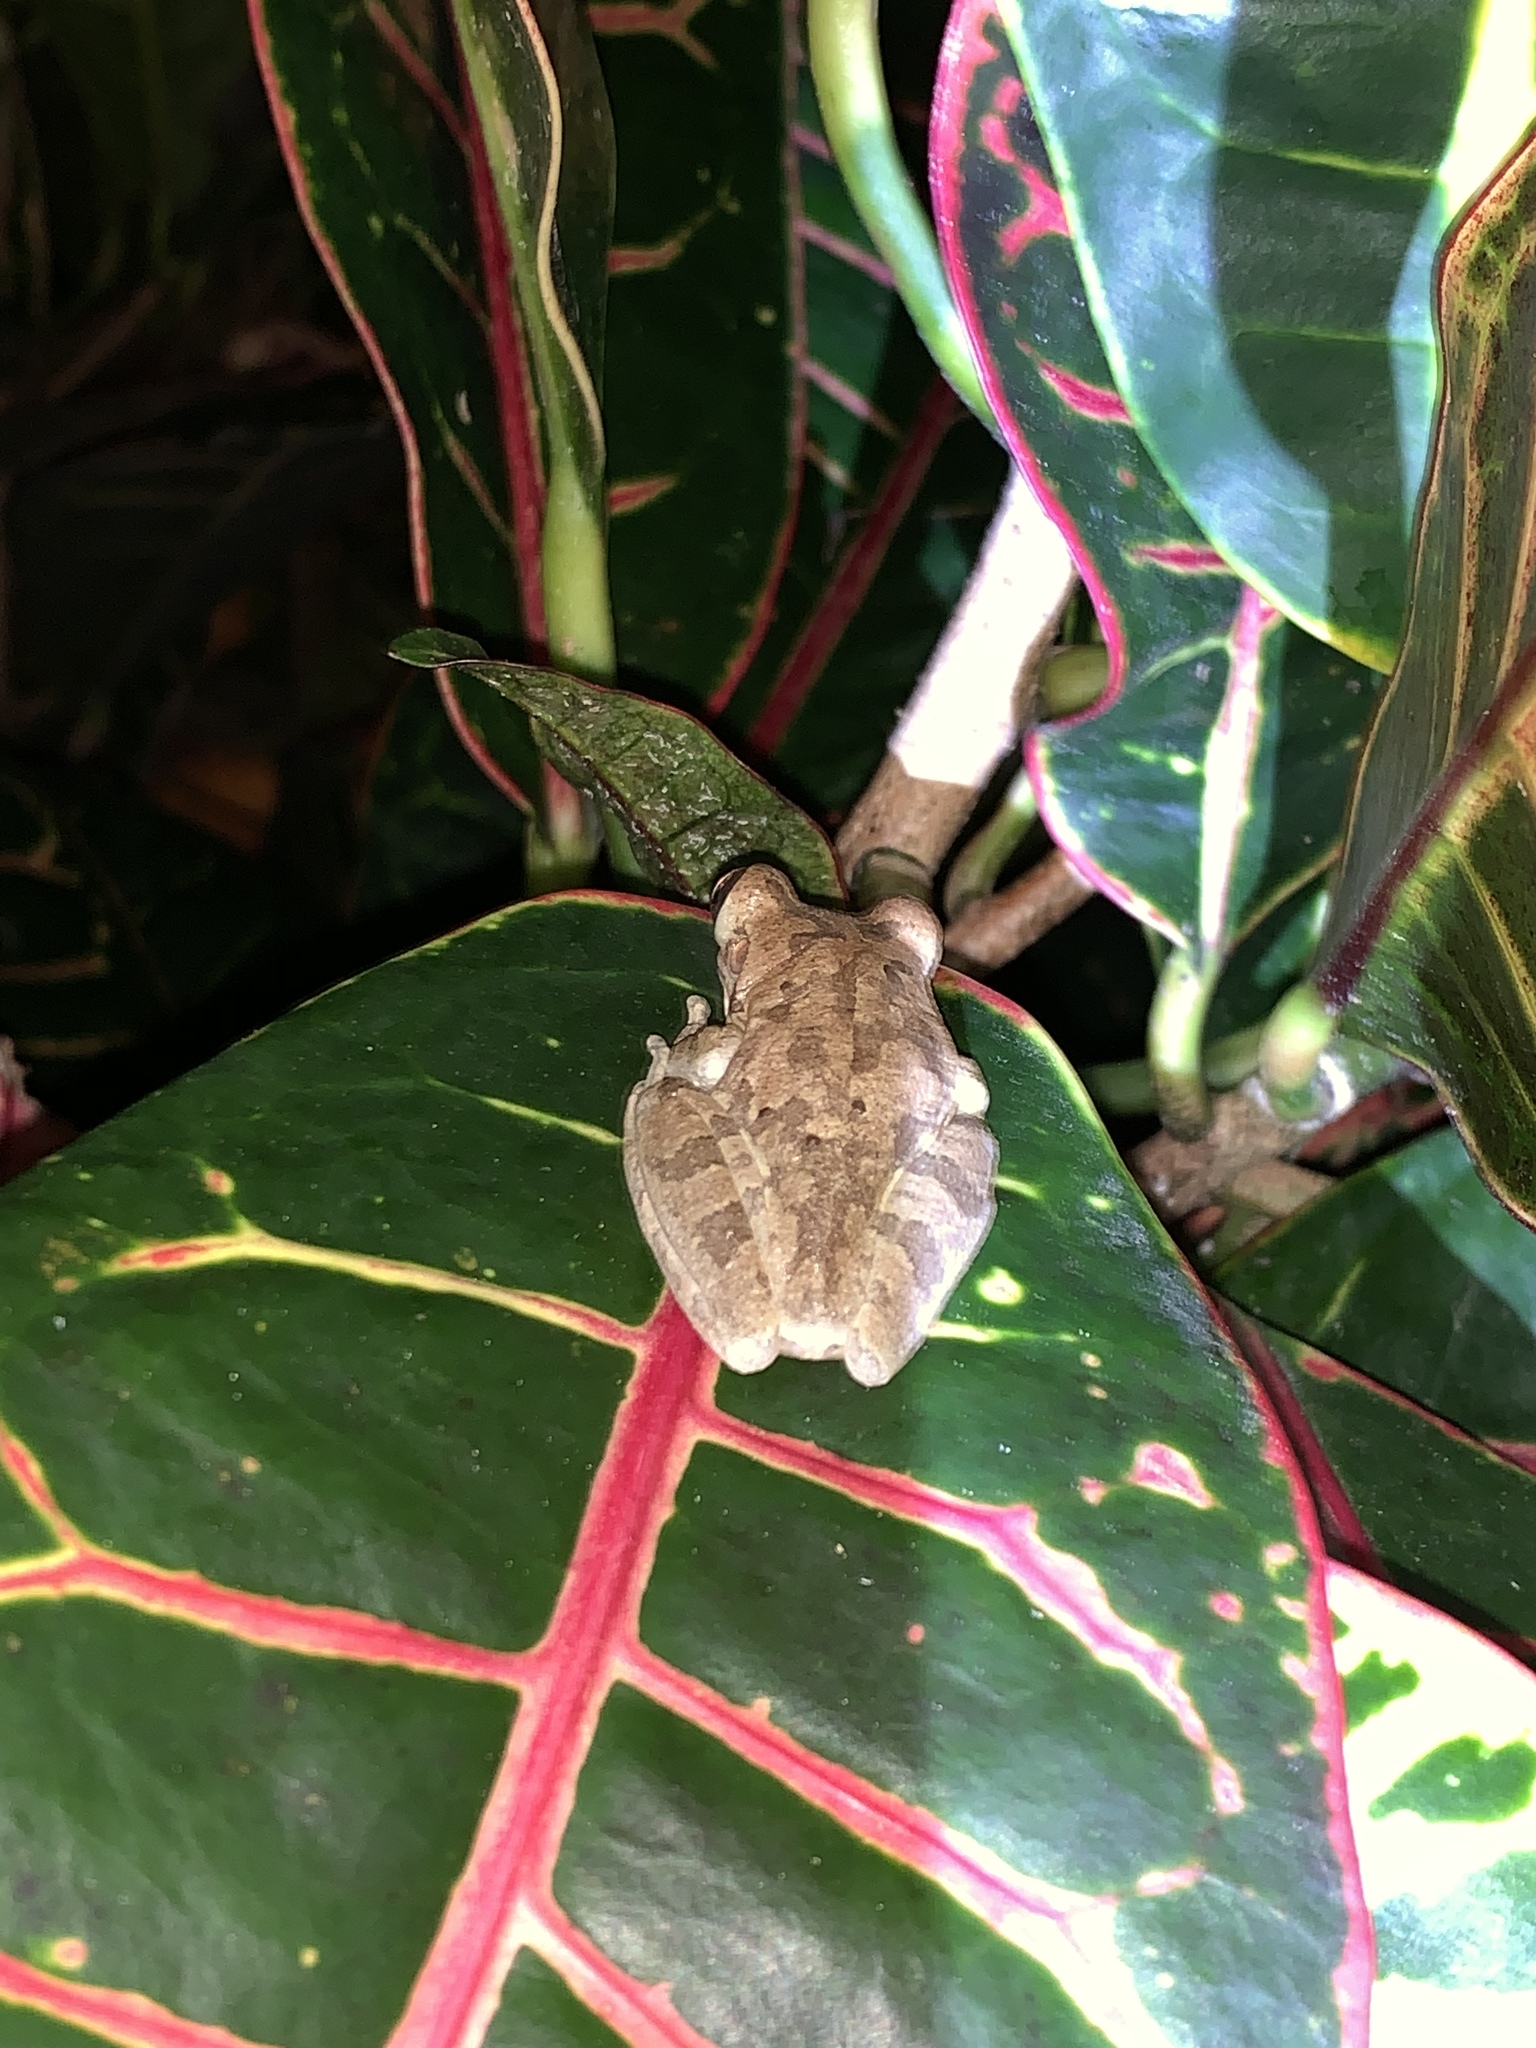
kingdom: Animalia
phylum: Chordata
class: Amphibia
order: Anura
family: Hylidae
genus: Osteopilus
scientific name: Osteopilus septentrionalis
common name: Cuban treefrog
